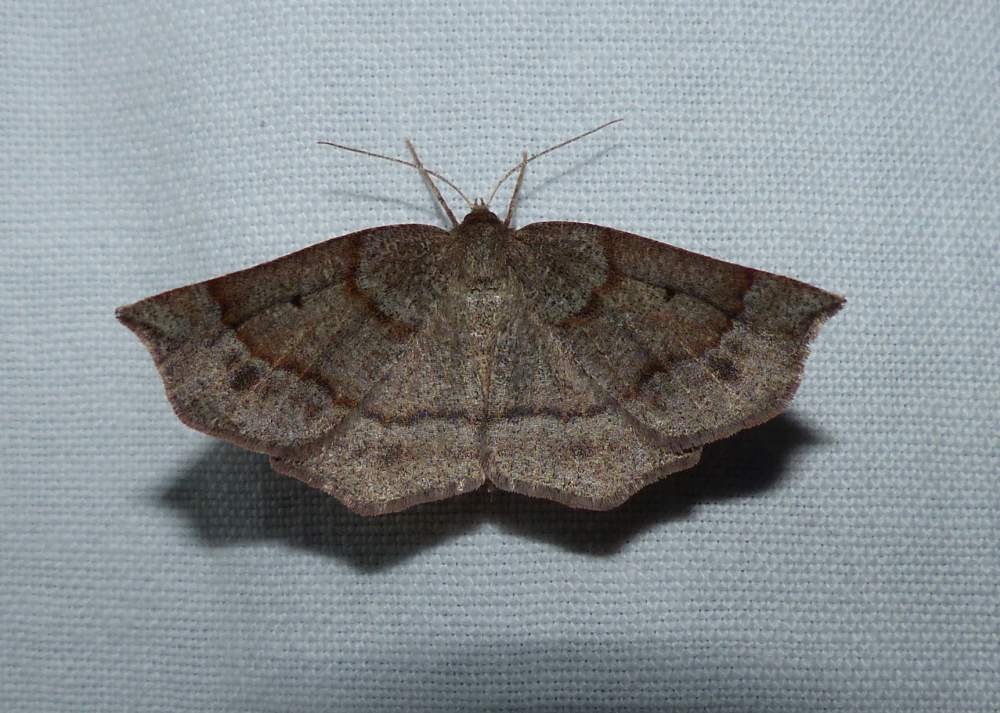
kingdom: Animalia
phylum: Arthropoda
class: Insecta
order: Lepidoptera
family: Geometridae
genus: Metarranthis
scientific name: Metarranthis duaria
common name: Ruddy metarranthis moth
